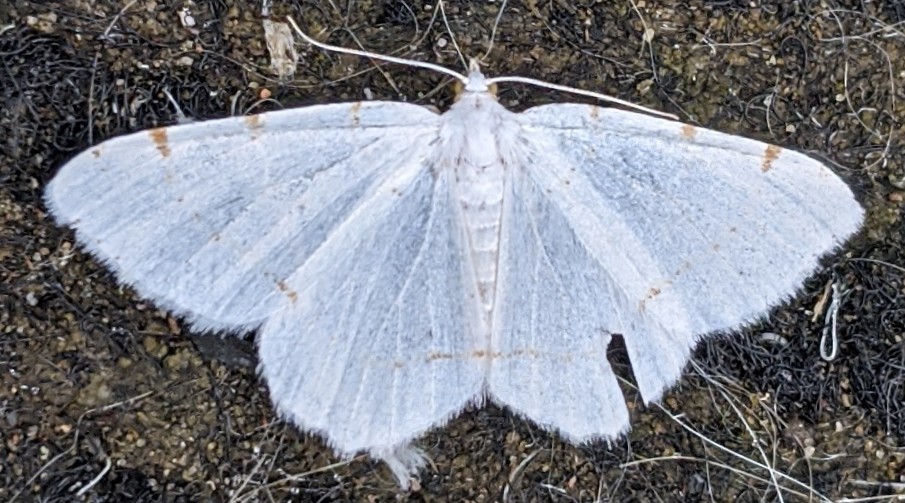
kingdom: Animalia
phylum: Arthropoda
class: Insecta
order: Lepidoptera
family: Geometridae
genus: Macaria
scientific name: Macaria pustularia
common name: Lesser maple spanworm moth
